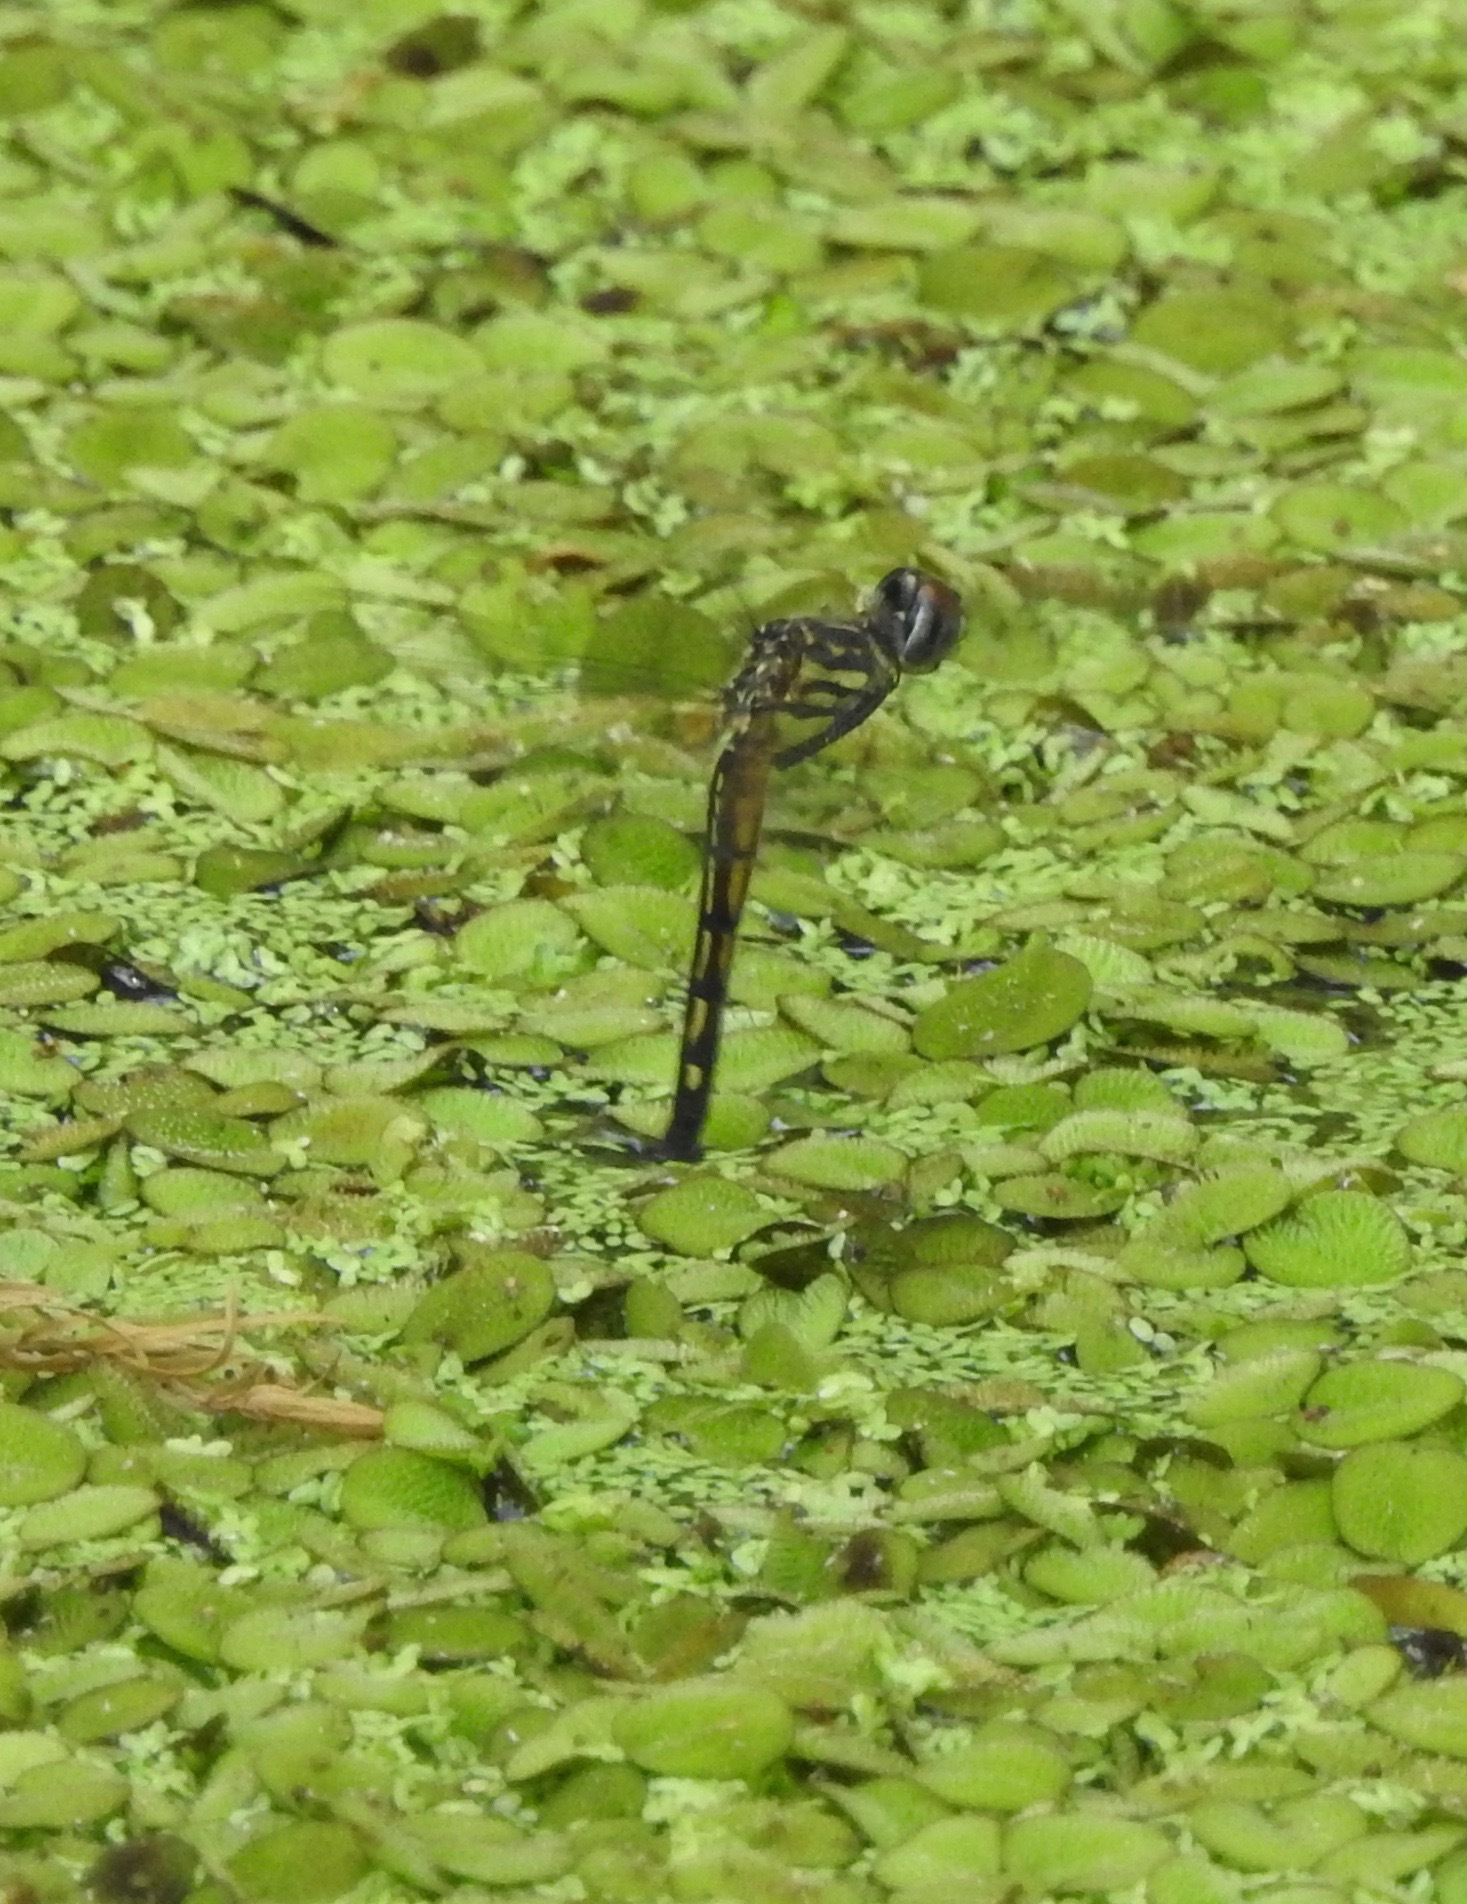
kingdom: Animalia
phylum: Arthropoda
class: Insecta
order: Odonata
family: Libellulidae
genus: Pachydiplax
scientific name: Pachydiplax longipennis
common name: Blue dasher
